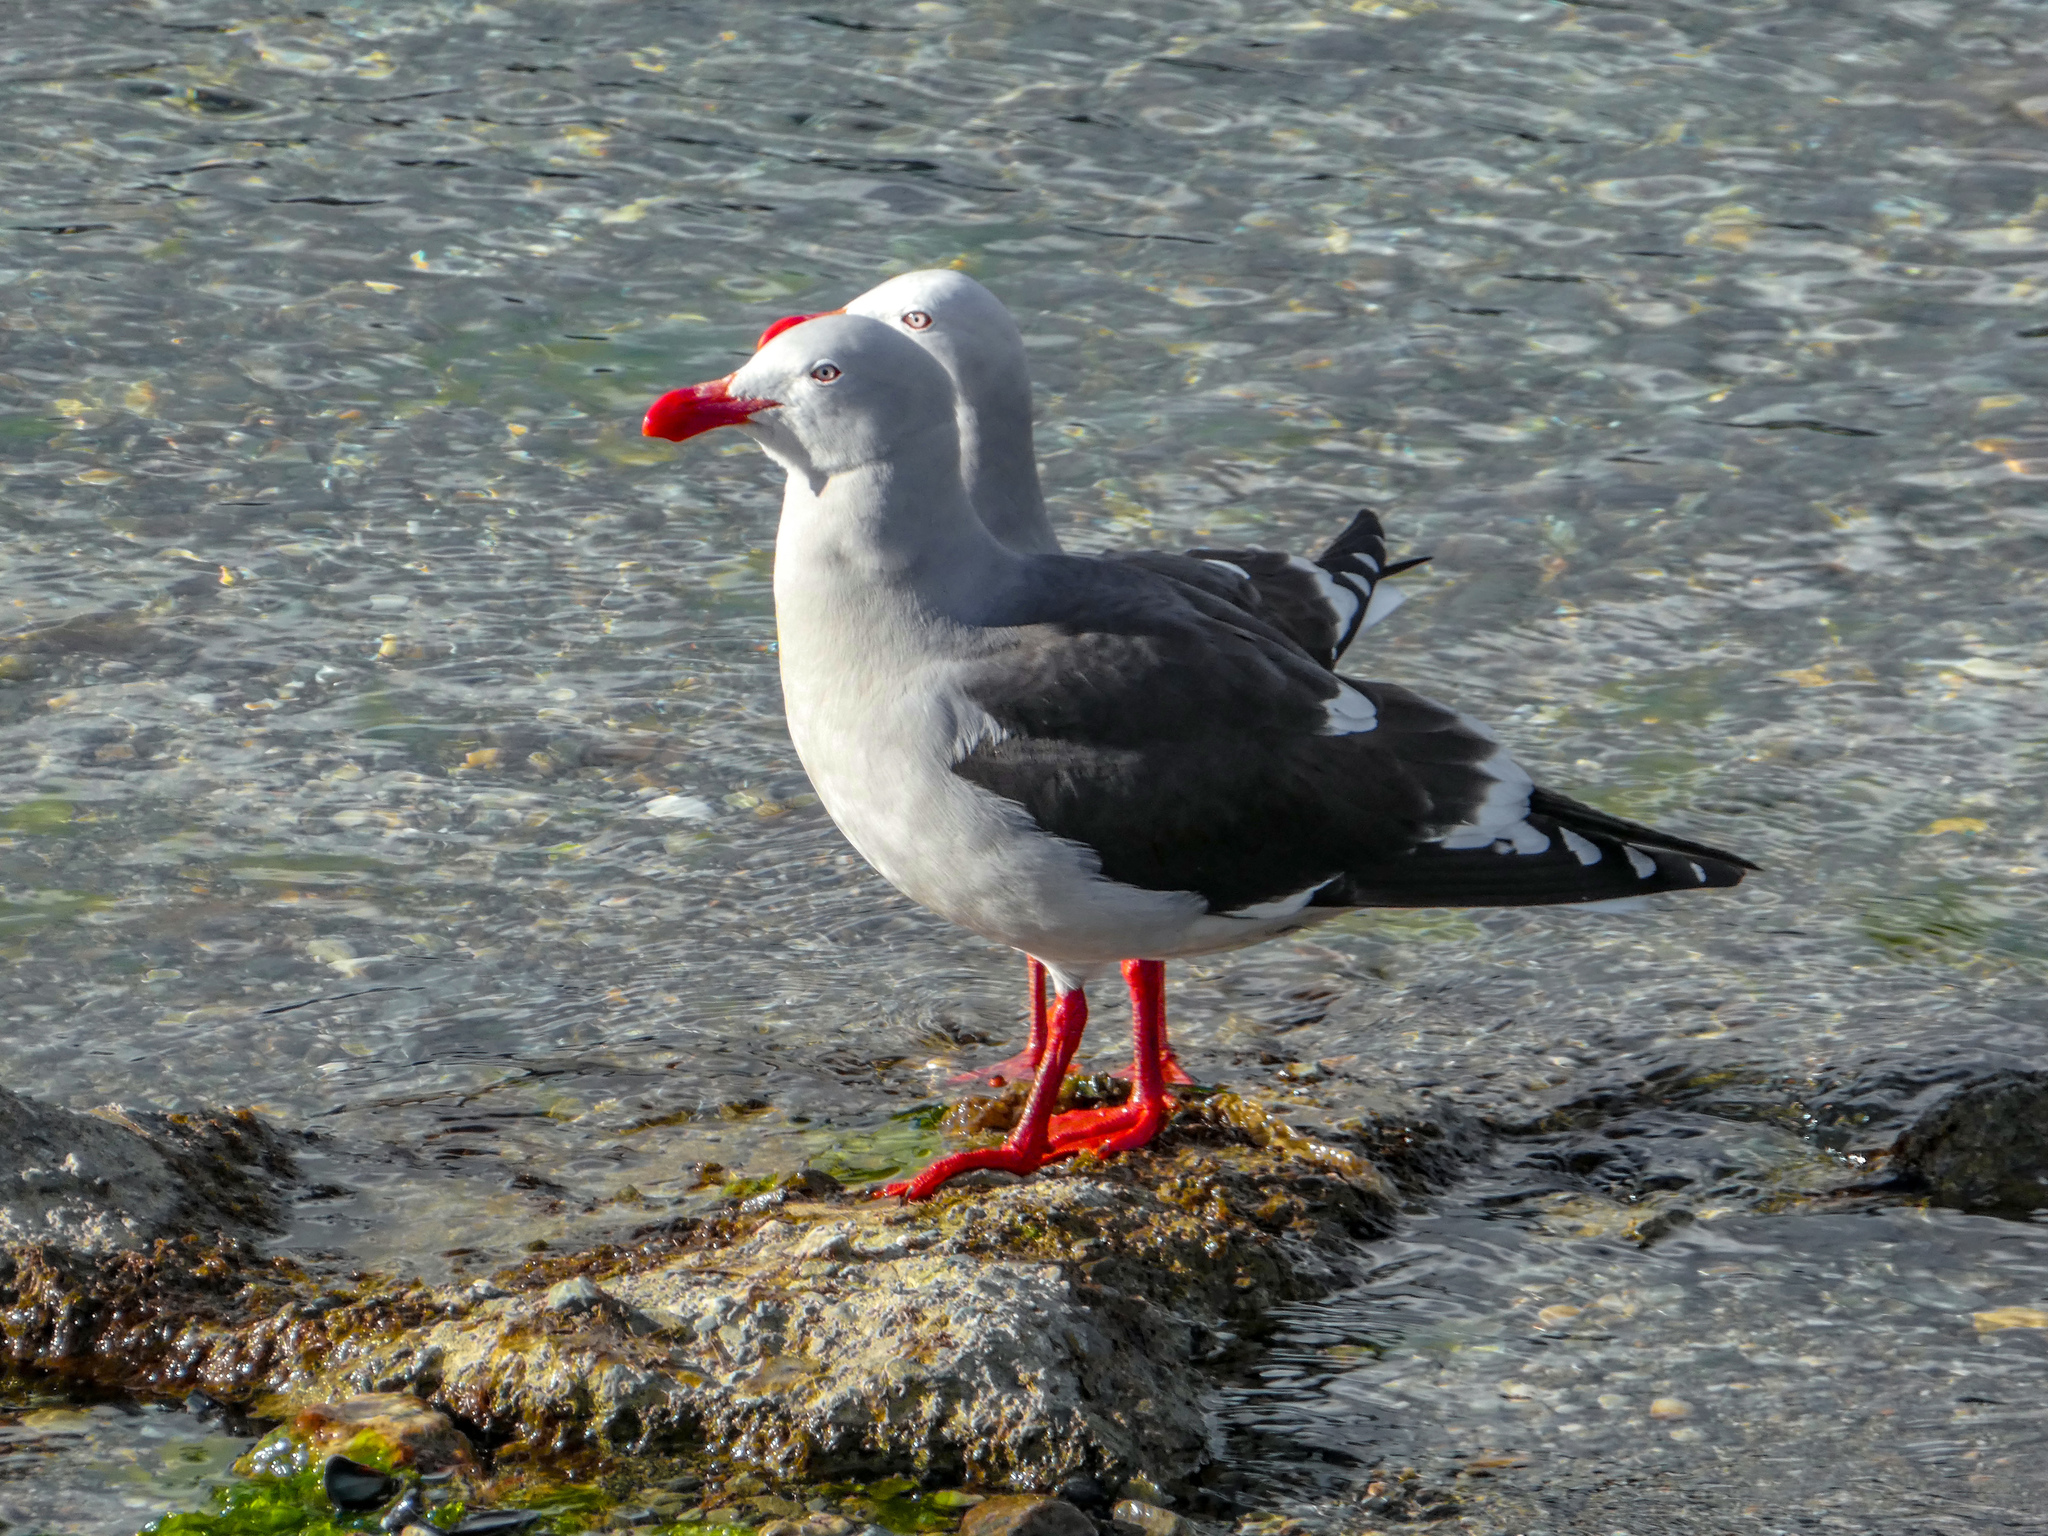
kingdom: Animalia
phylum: Chordata
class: Aves
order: Charadriiformes
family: Laridae
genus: Leucophaeus
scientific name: Leucophaeus scoresbii
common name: Dolphin gull
